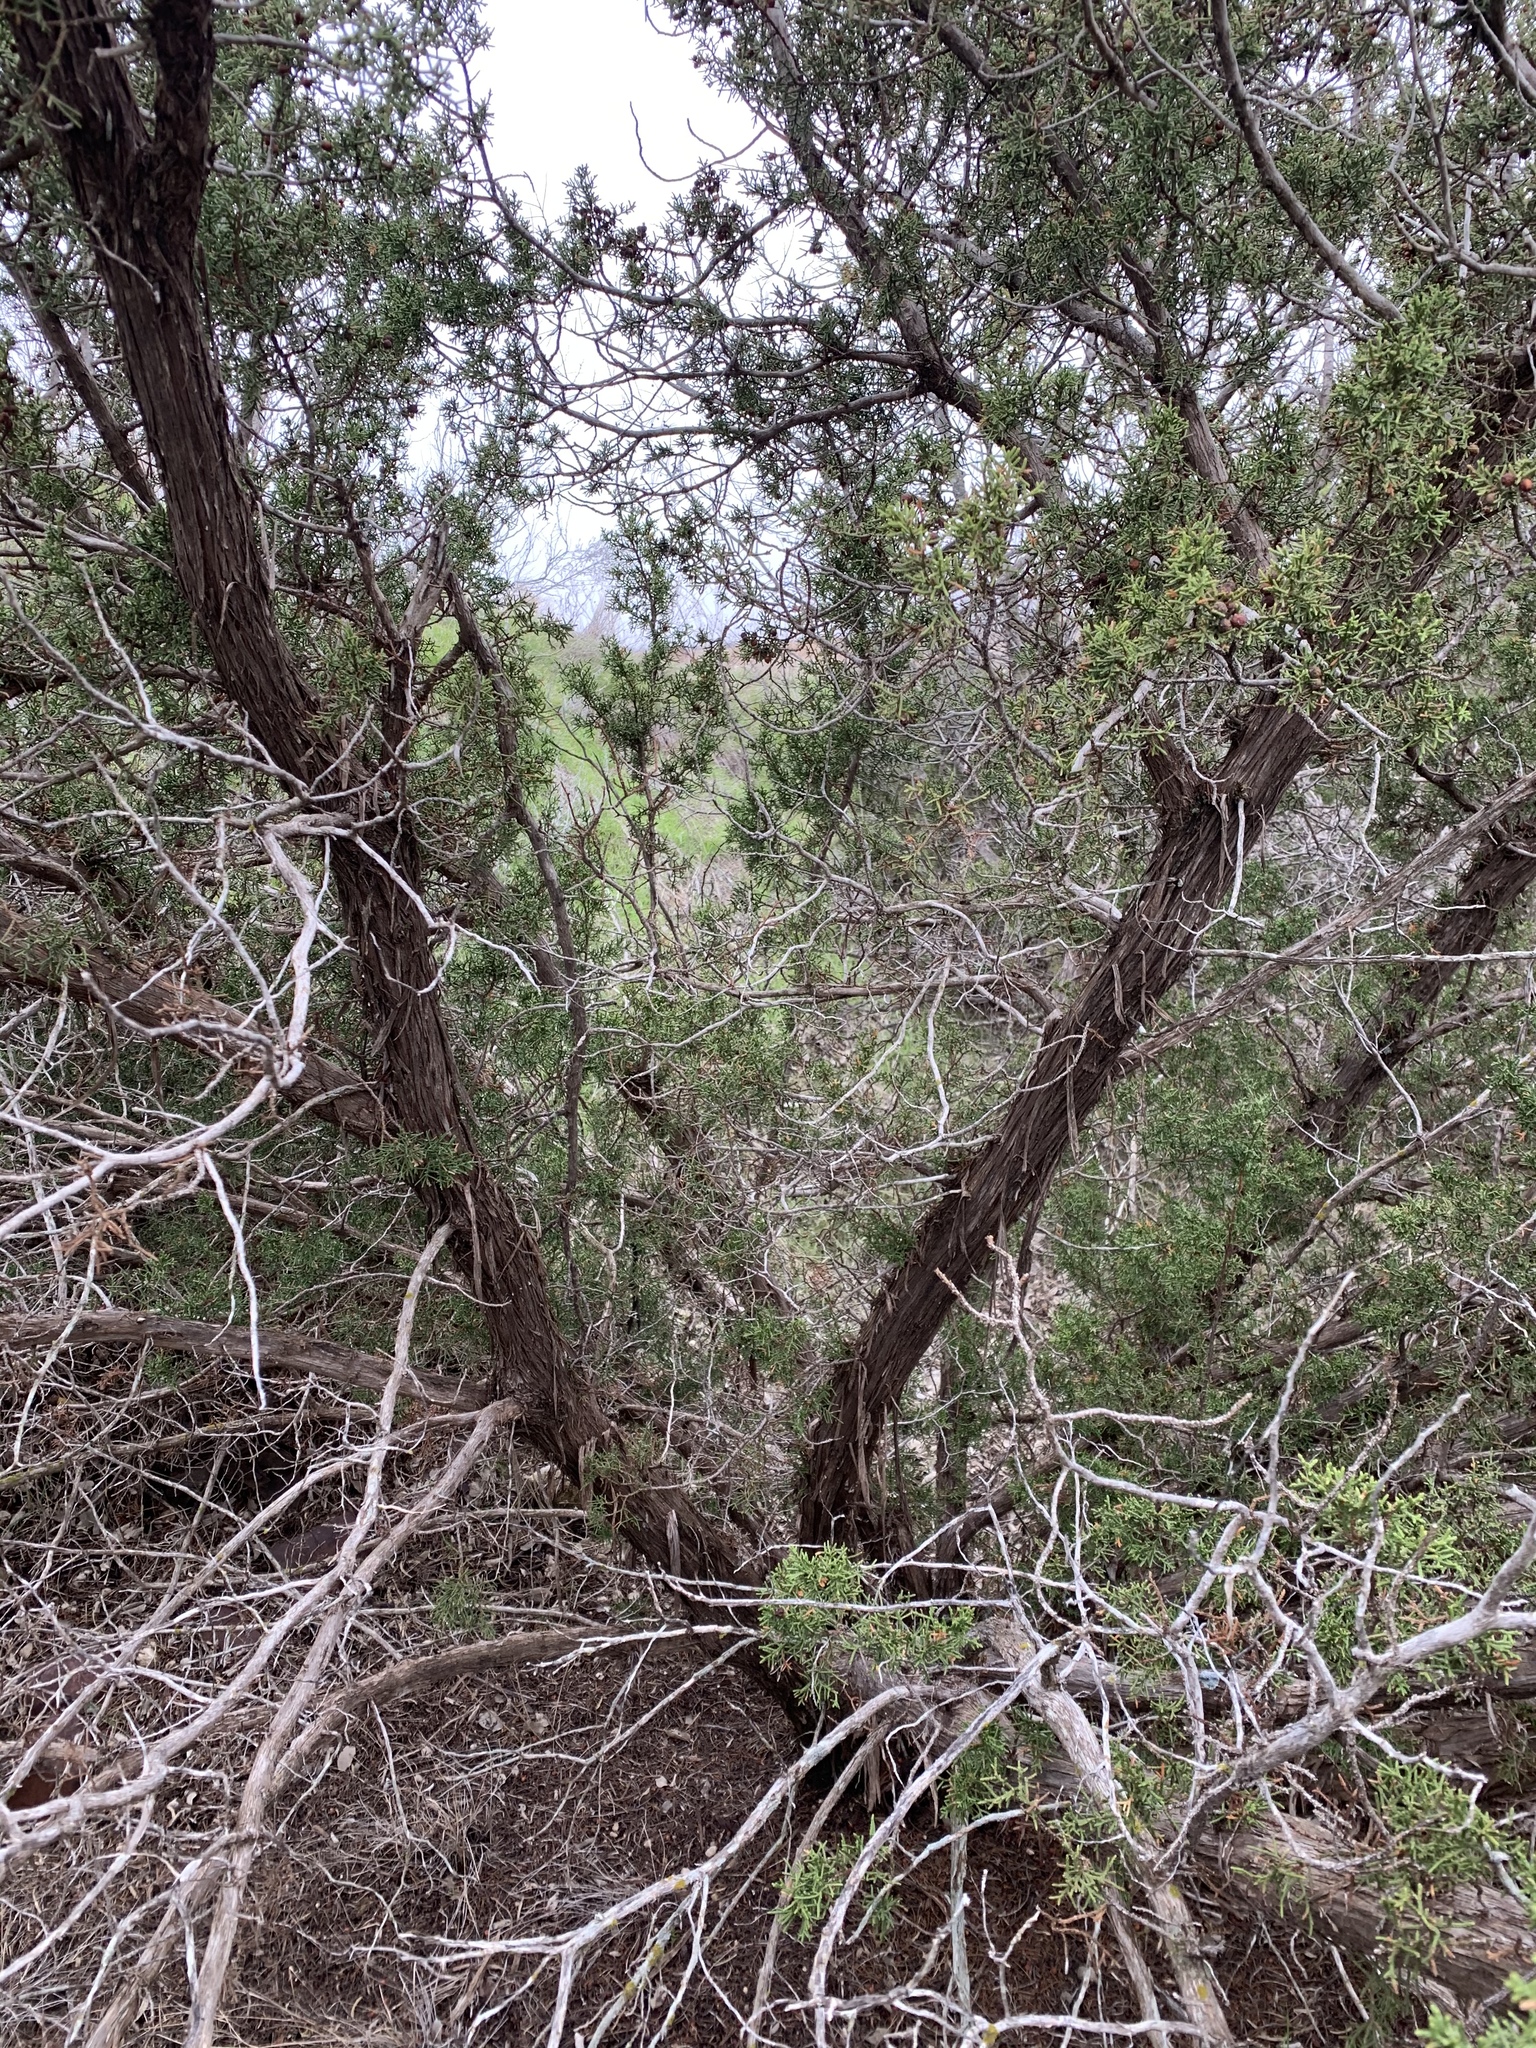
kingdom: Plantae
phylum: Tracheophyta
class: Pinopsida
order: Pinales
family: Cupressaceae
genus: Juniperus
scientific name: Juniperus pinchotii
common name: Pinchot juniper
